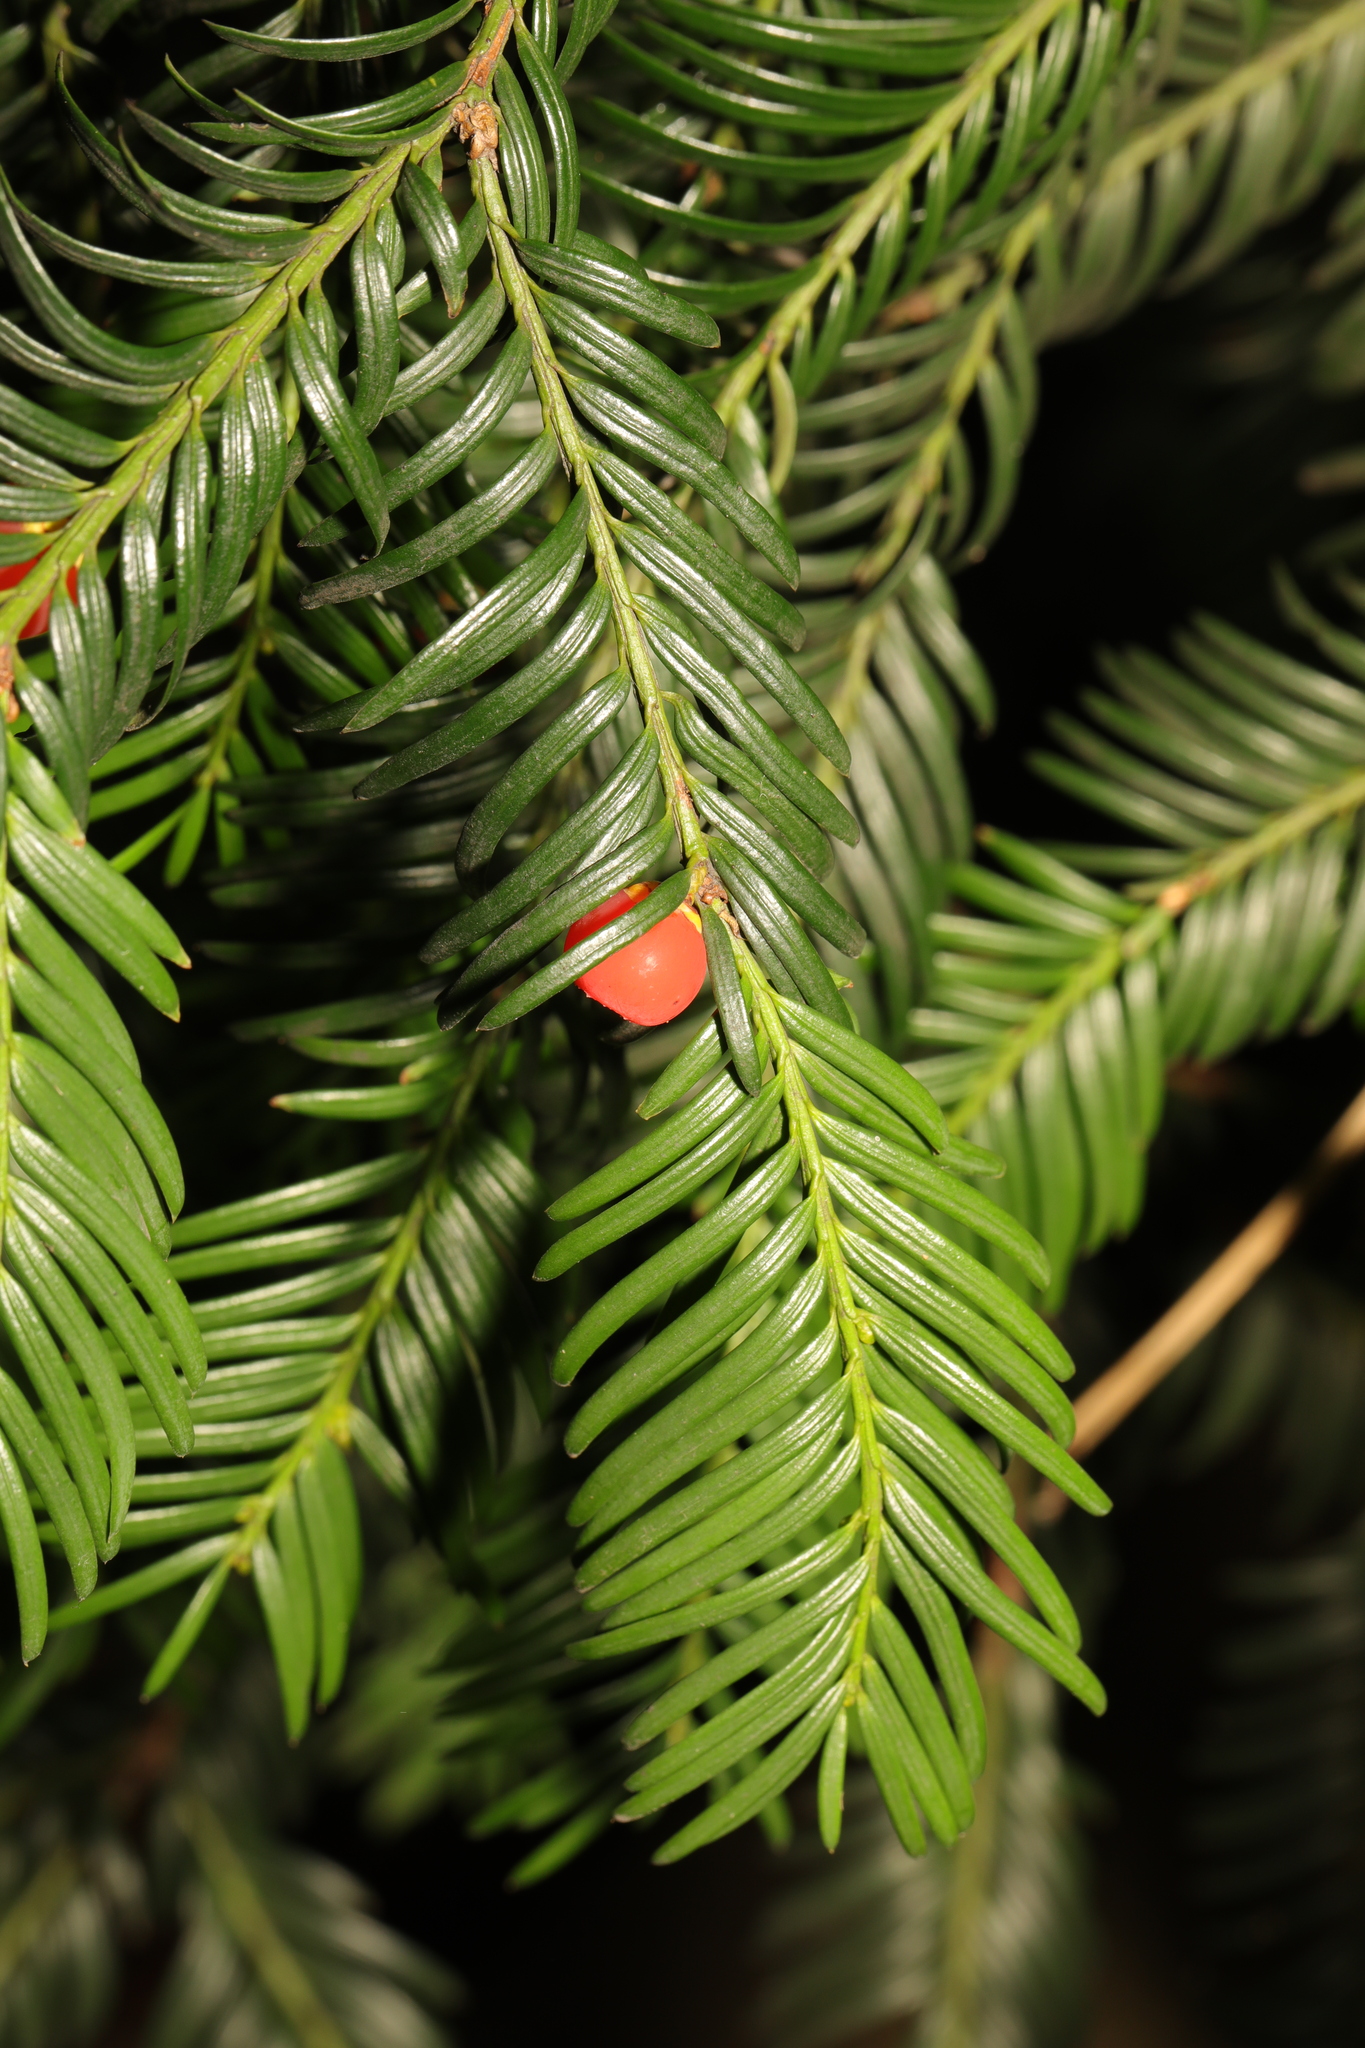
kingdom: Plantae
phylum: Tracheophyta
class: Pinopsida
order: Pinales
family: Taxaceae
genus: Taxus
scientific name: Taxus baccata
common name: Yew
